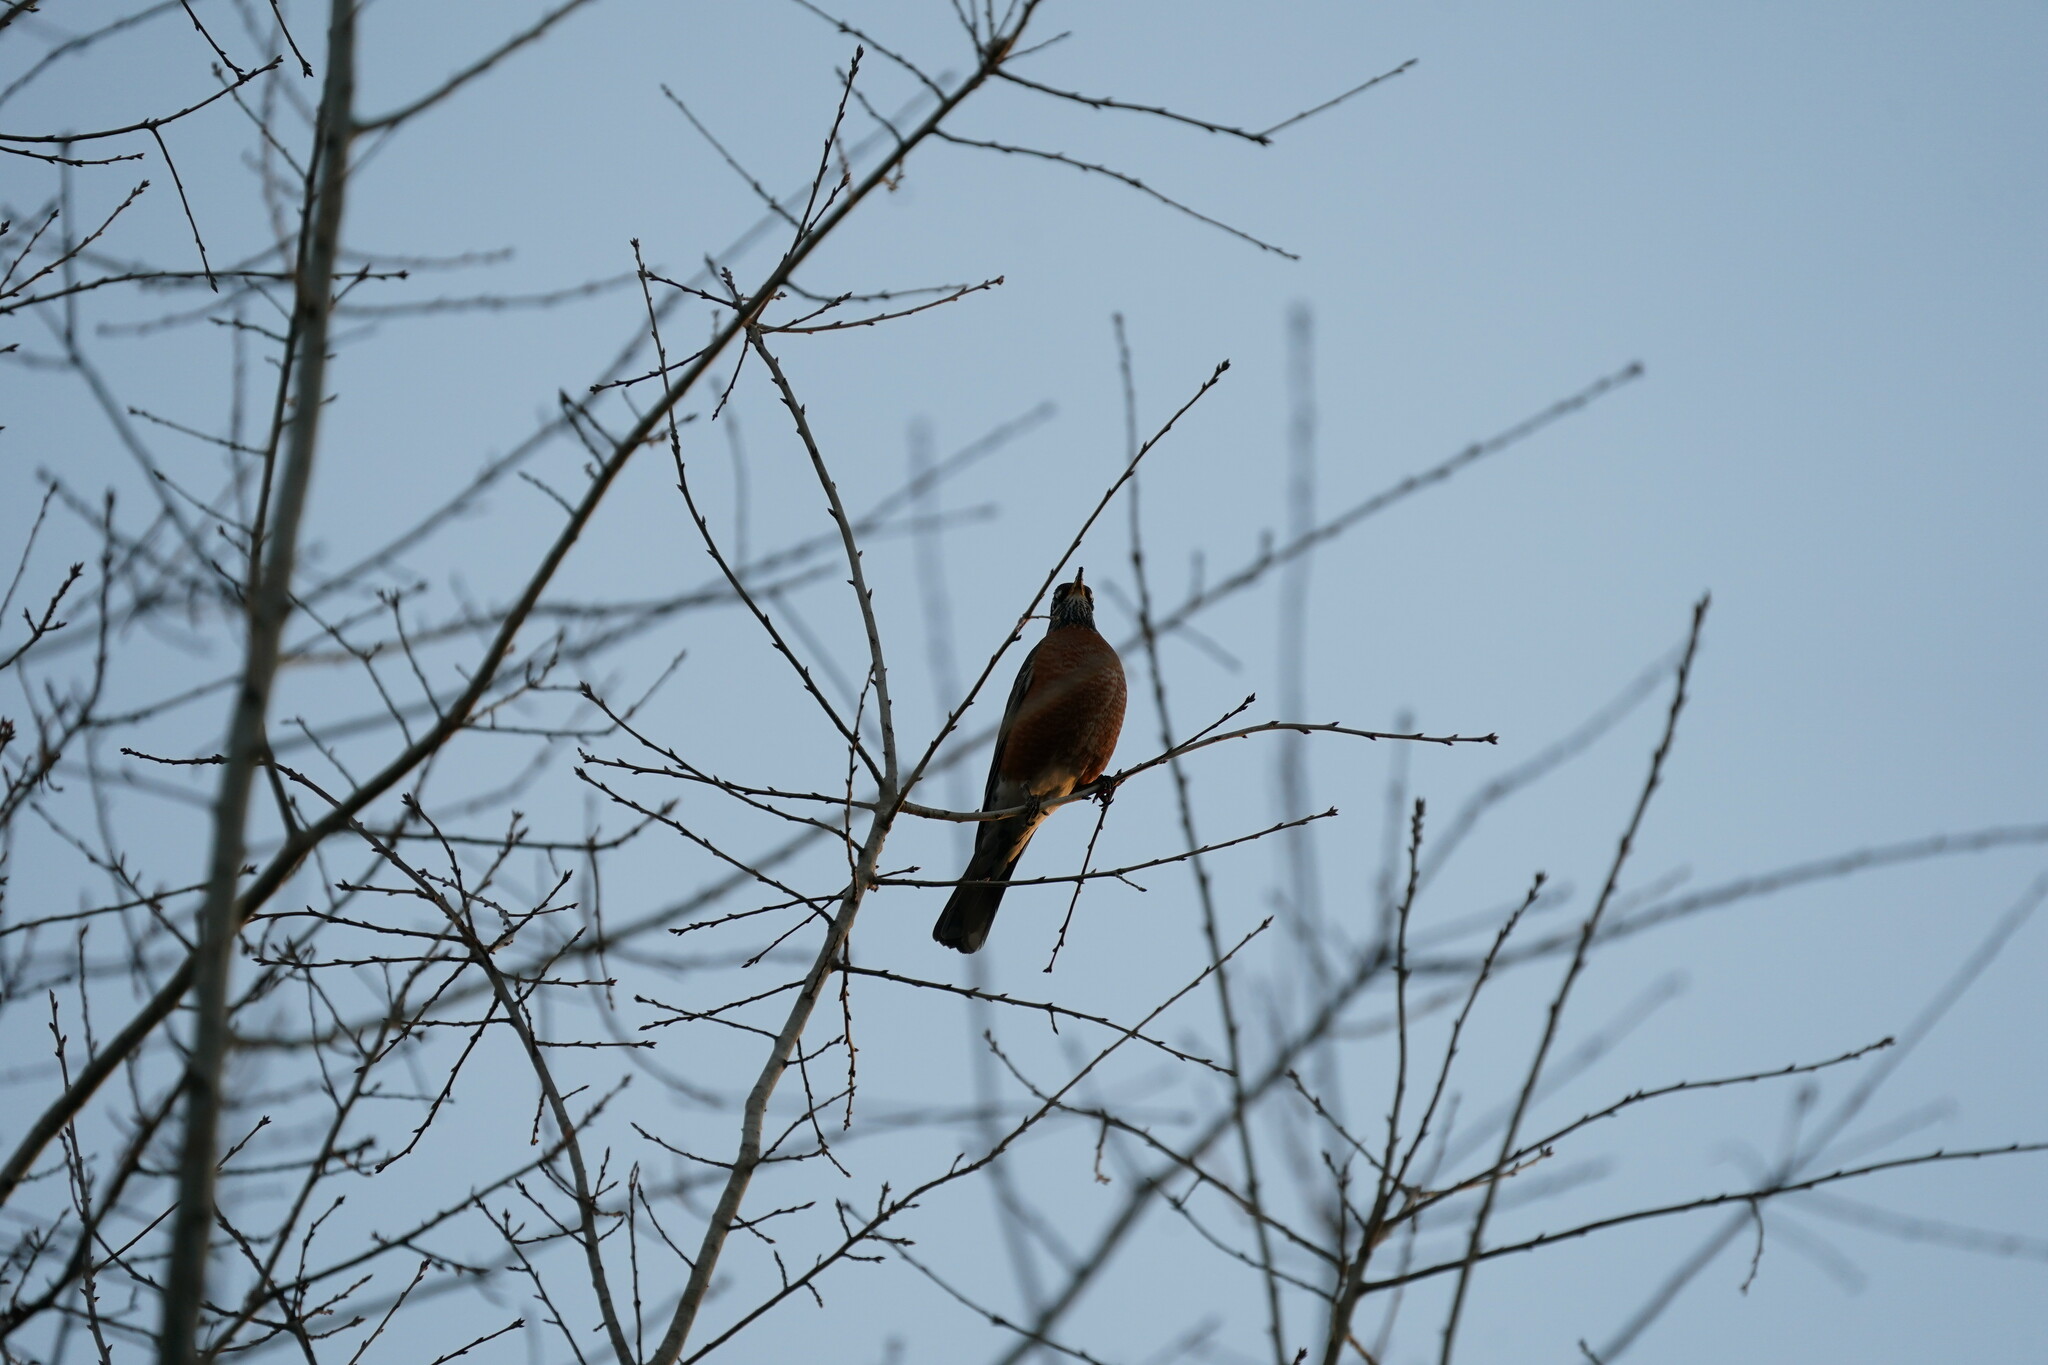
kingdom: Animalia
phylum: Chordata
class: Aves
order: Passeriformes
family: Turdidae
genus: Turdus
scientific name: Turdus migratorius
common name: American robin
